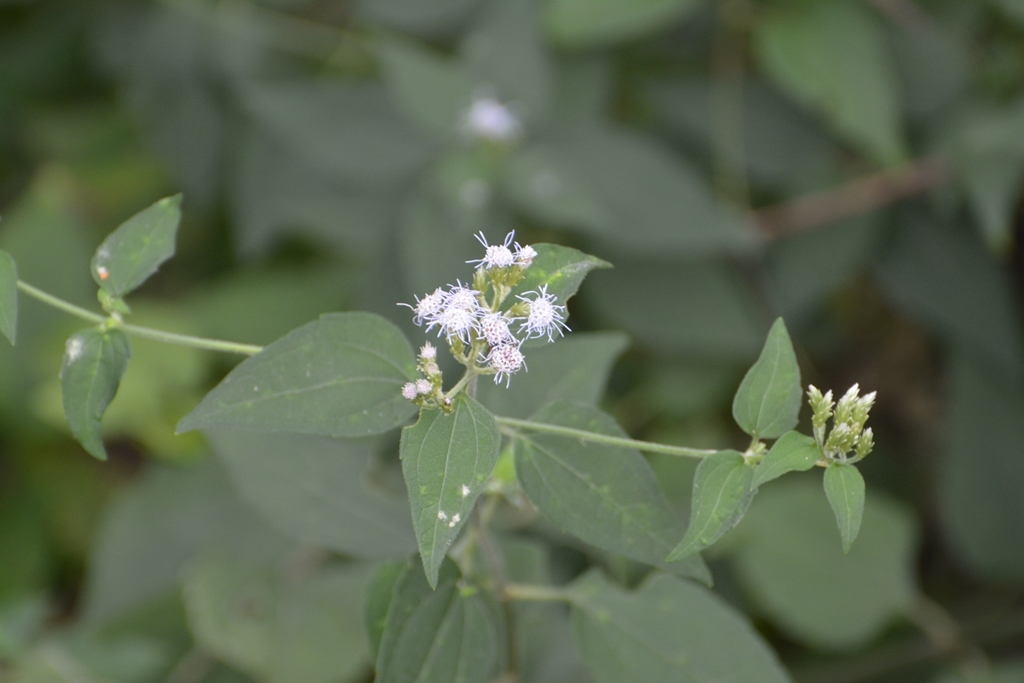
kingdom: Plantae
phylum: Tracheophyta
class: Magnoliopsida
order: Asterales
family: Asteraceae
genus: Chromolaena
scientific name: Chromolaena odorata
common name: Siamweed
